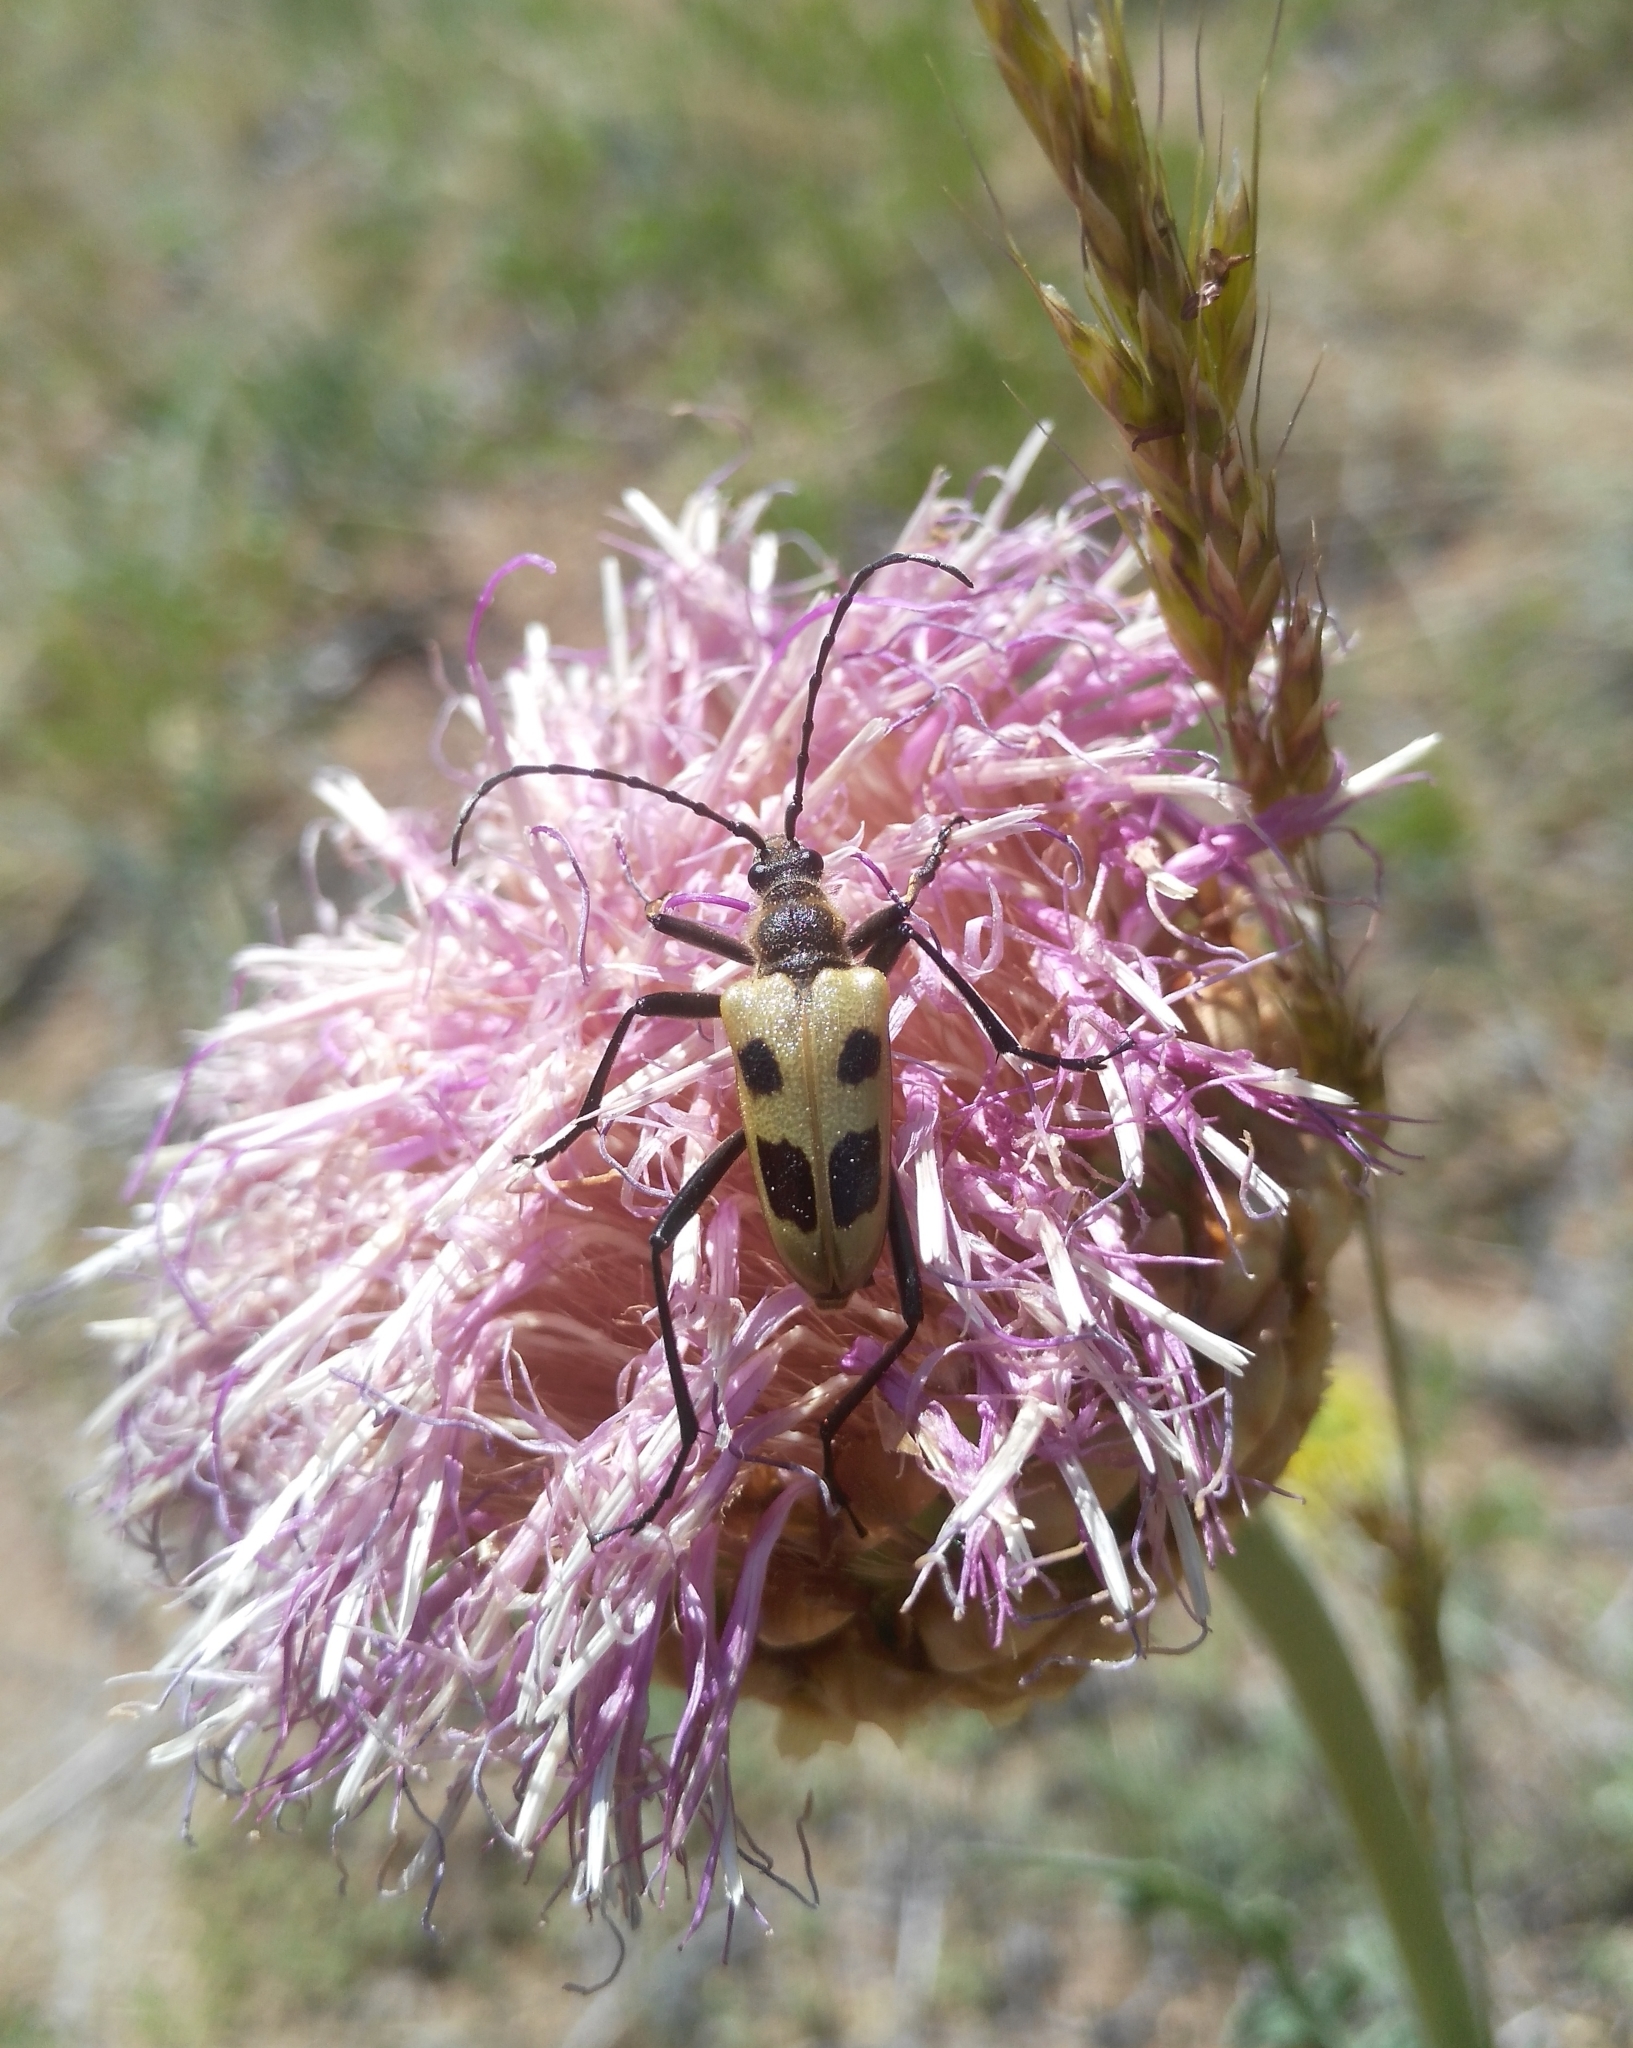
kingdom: Animalia
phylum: Arthropoda
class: Insecta
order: Coleoptera
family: Cerambycidae
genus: Pachyta
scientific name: Pachyta quadrimaculata
